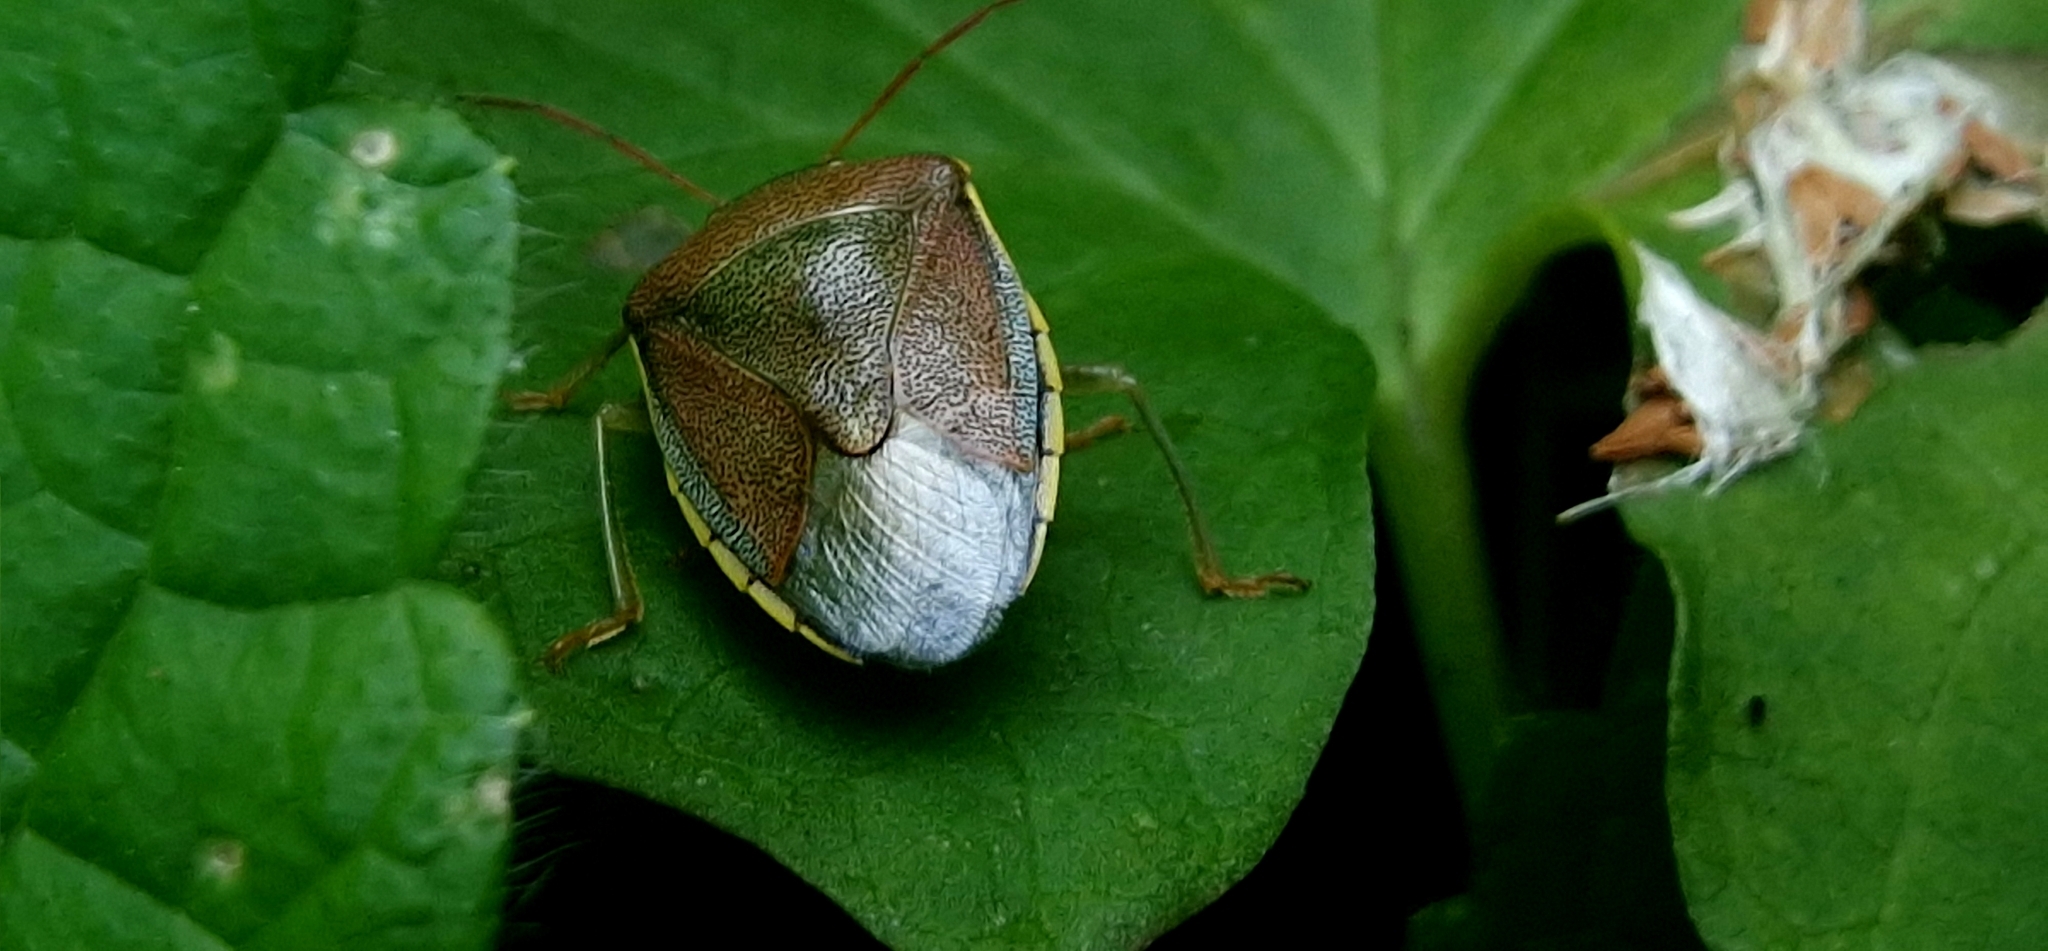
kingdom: Animalia
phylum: Arthropoda
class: Insecta
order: Hemiptera
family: Pentatomidae
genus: Piezodorus
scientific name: Piezodorus lituratus
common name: Stink bug
